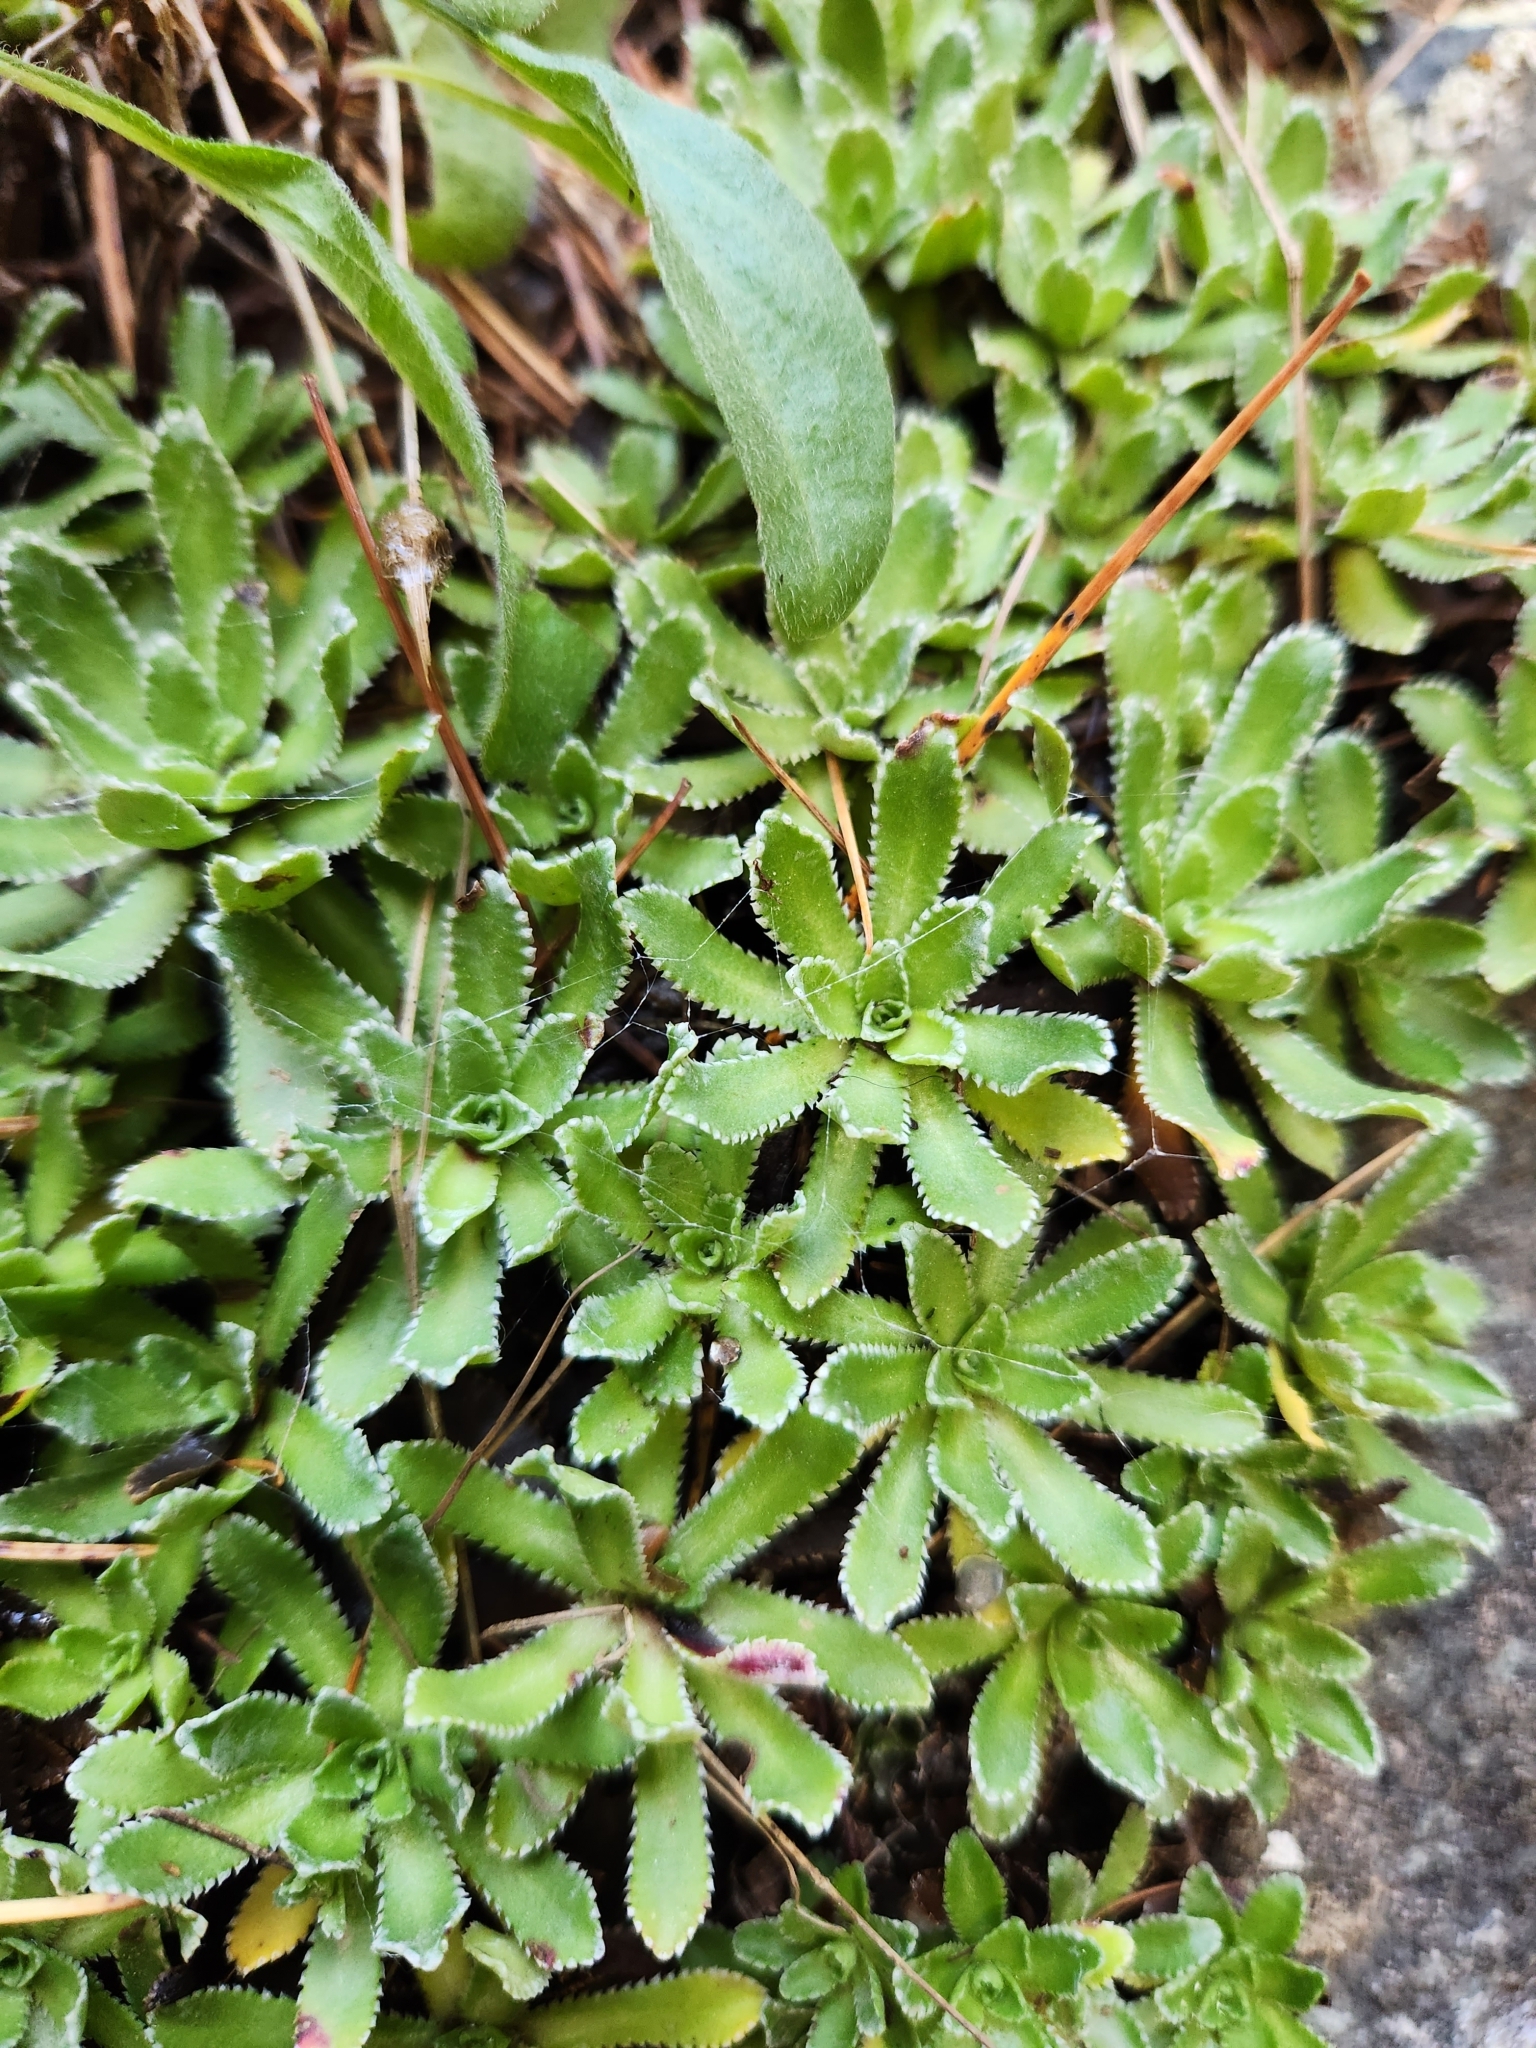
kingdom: Plantae
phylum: Tracheophyta
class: Magnoliopsida
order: Saxifragales
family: Saxifragaceae
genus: Saxifraga
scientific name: Saxifraga paniculata
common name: Livelong saxifrage
